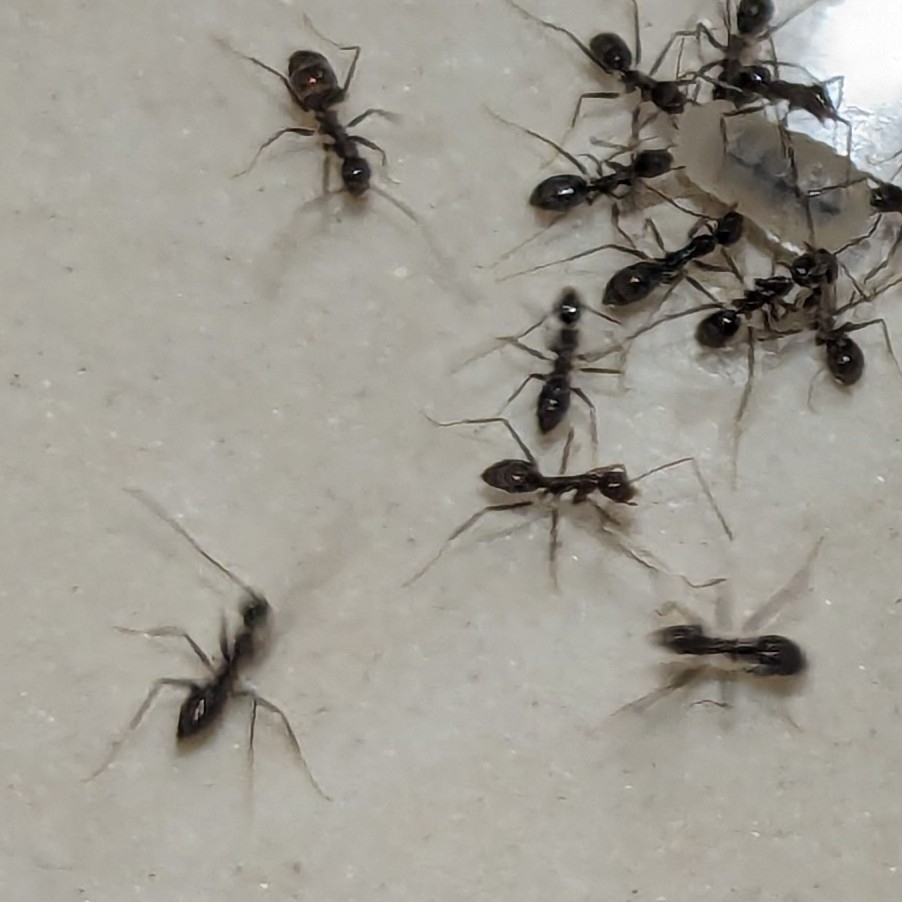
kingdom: Animalia
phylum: Arthropoda
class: Insecta
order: Hymenoptera
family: Formicidae
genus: Paratrechina
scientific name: Paratrechina longicornis
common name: Longhorned crazy ant
